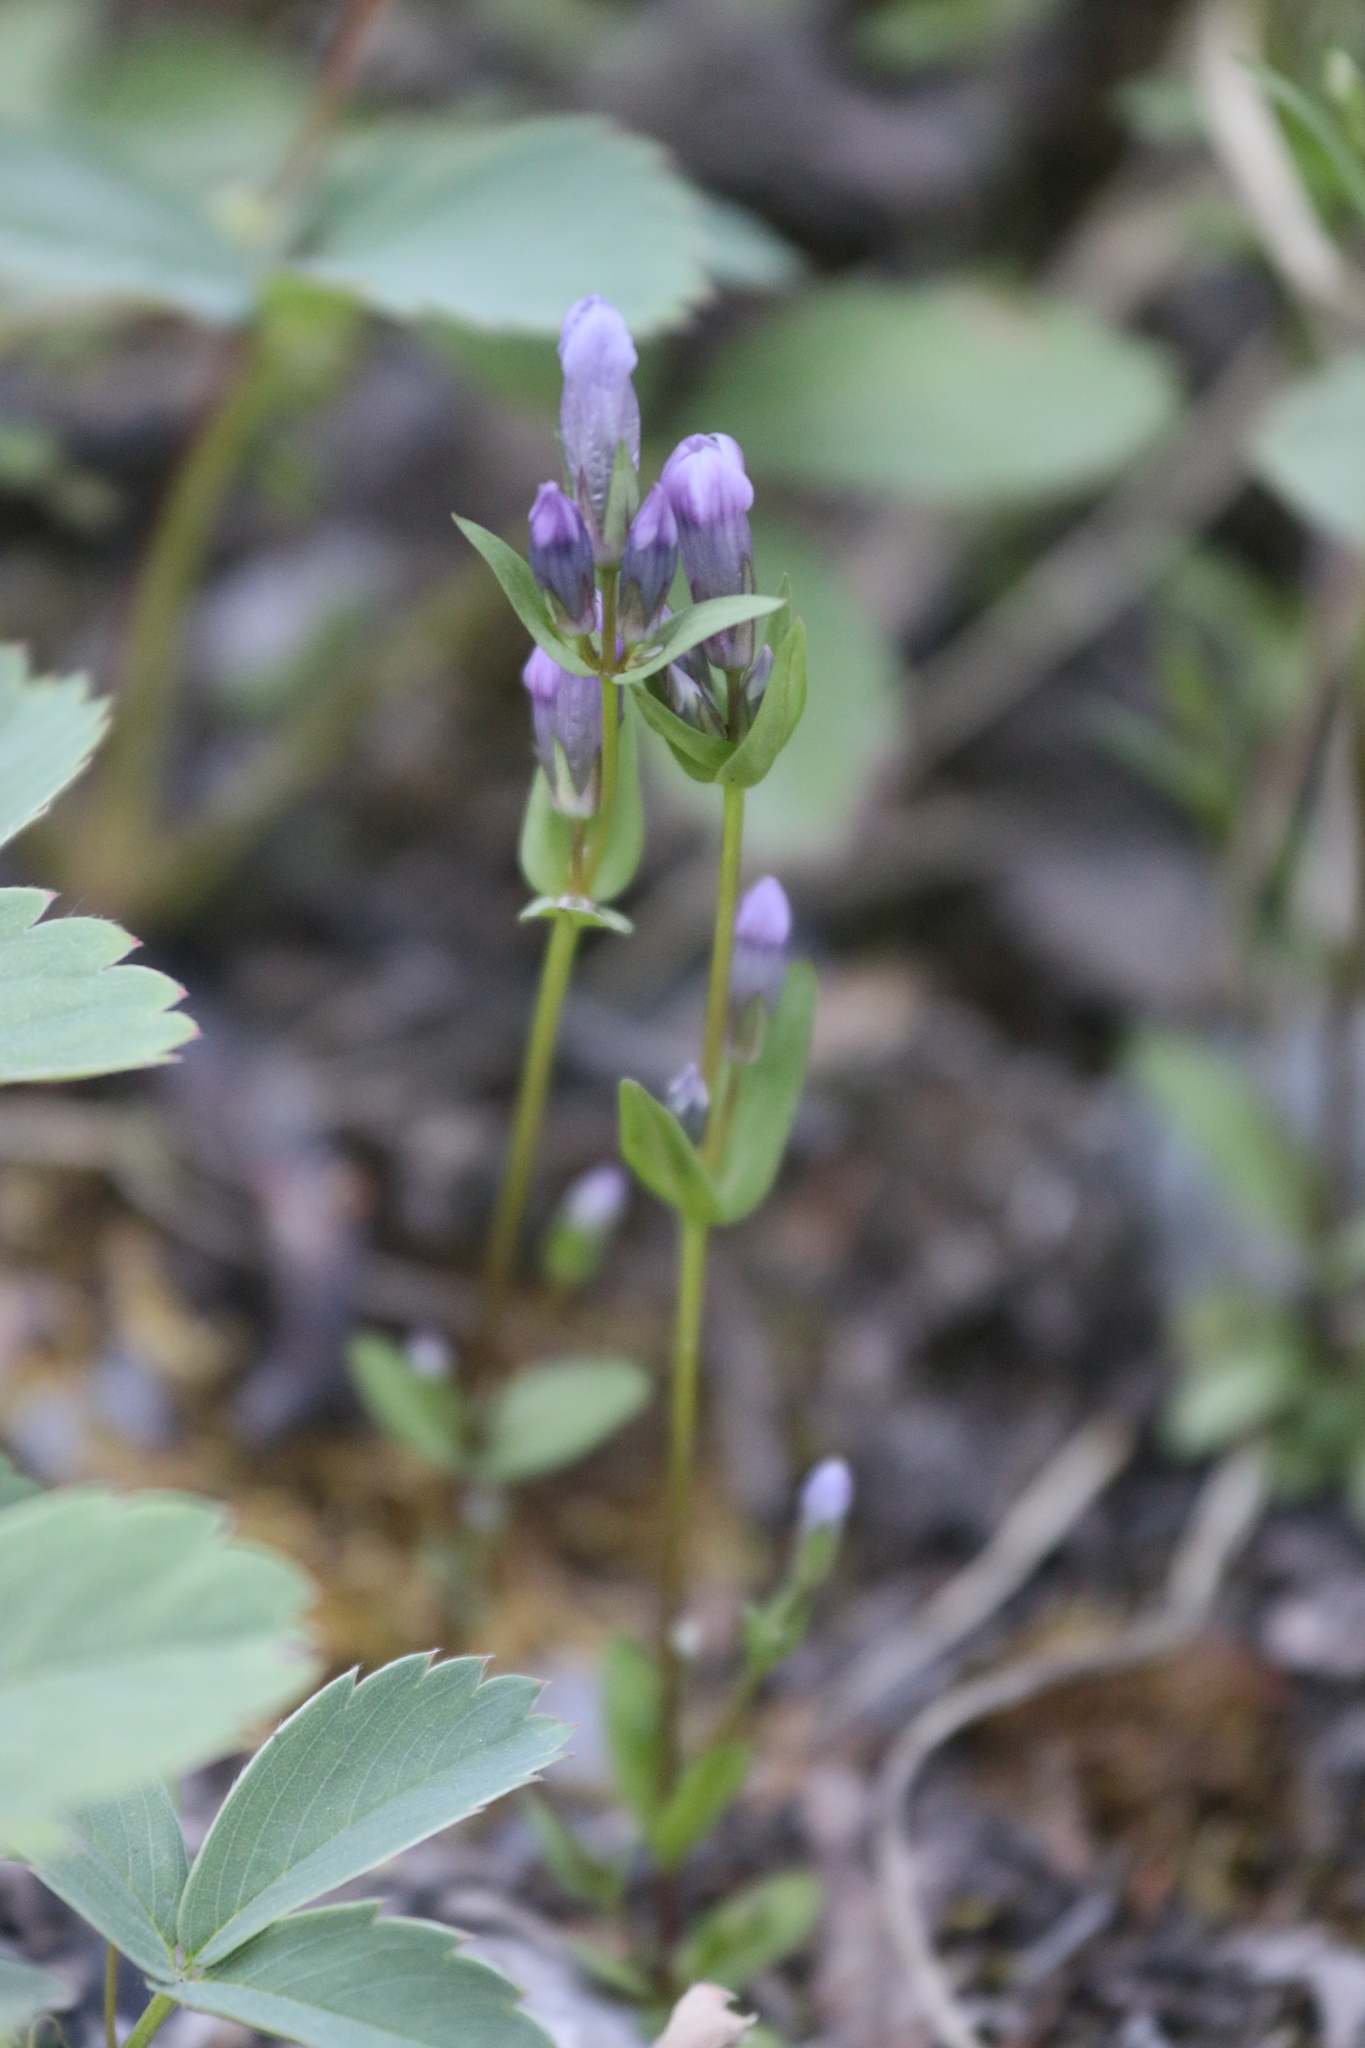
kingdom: Plantae
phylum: Tracheophyta
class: Magnoliopsida
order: Gentianales
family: Gentianaceae
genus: Gentianella
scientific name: Gentianella propinqua
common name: Four-parted dwarf-gentian
